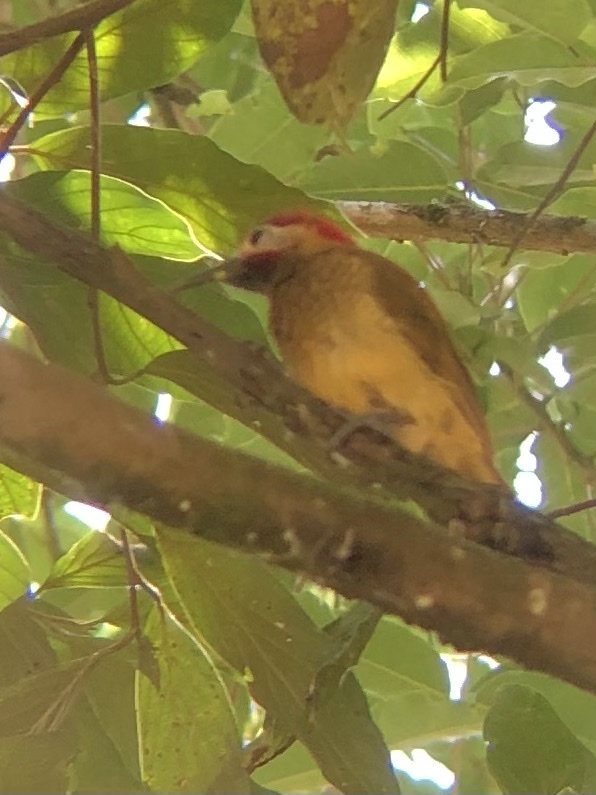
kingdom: Animalia
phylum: Chordata
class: Aves
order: Piciformes
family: Picidae
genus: Colaptes
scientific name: Colaptes rubiginosus
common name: Golden-olive woodpecker
